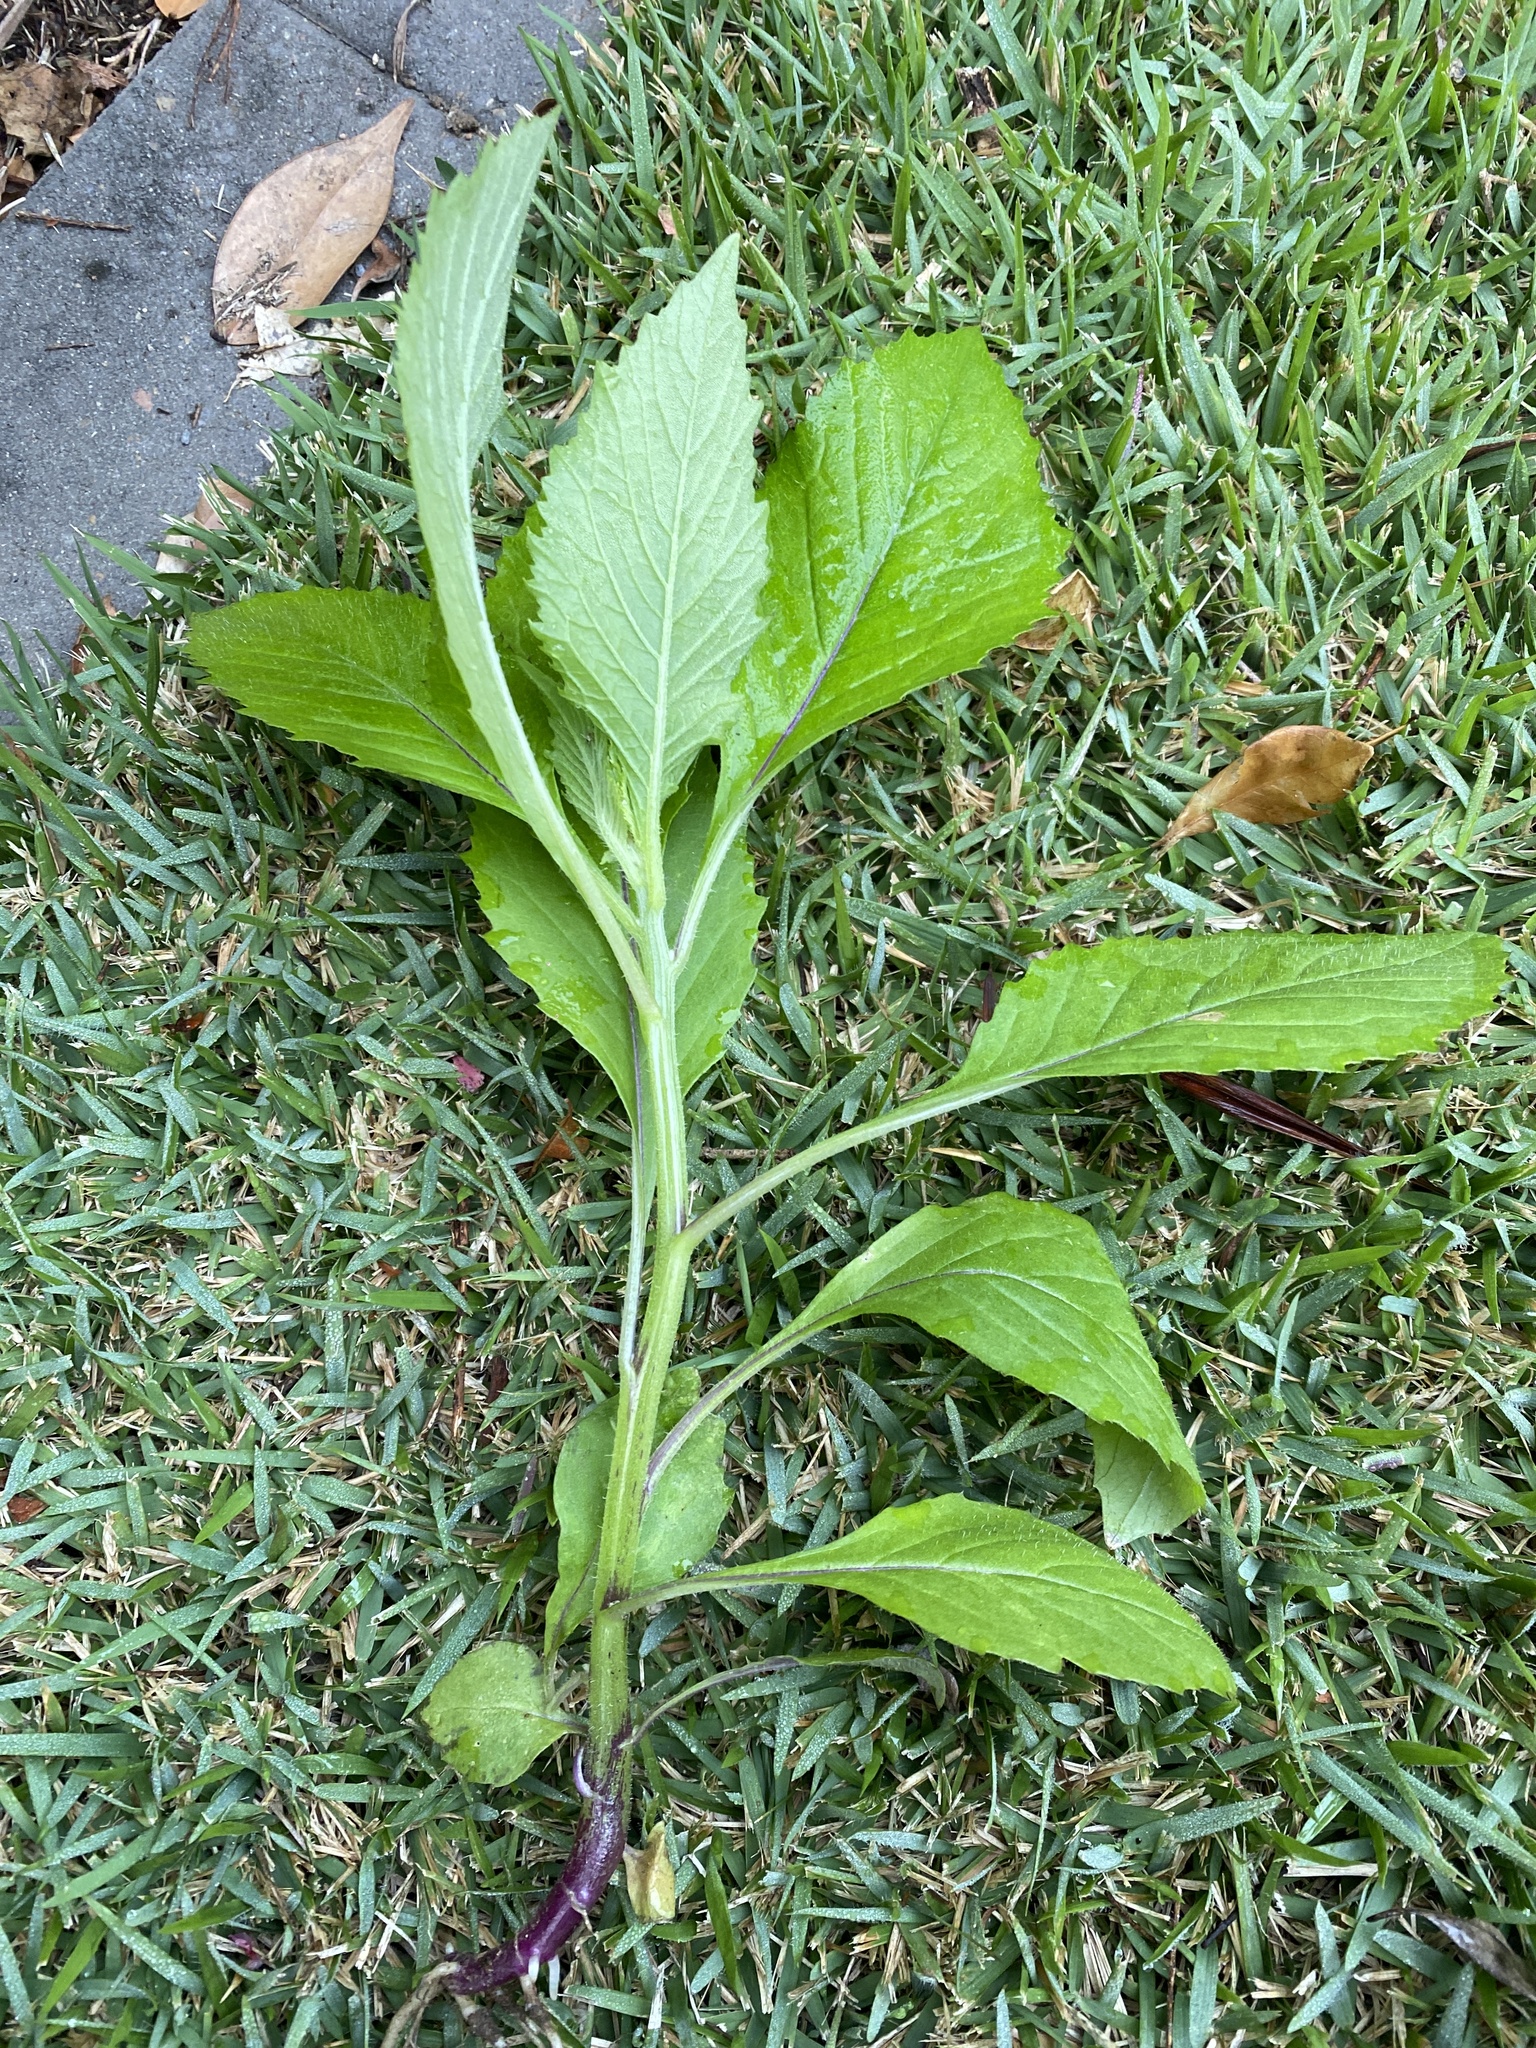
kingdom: Plantae
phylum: Tracheophyta
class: Magnoliopsida
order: Asterales
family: Asteraceae
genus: Crassocephalum
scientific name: Crassocephalum crepidioides
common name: Redflower ragleaf
